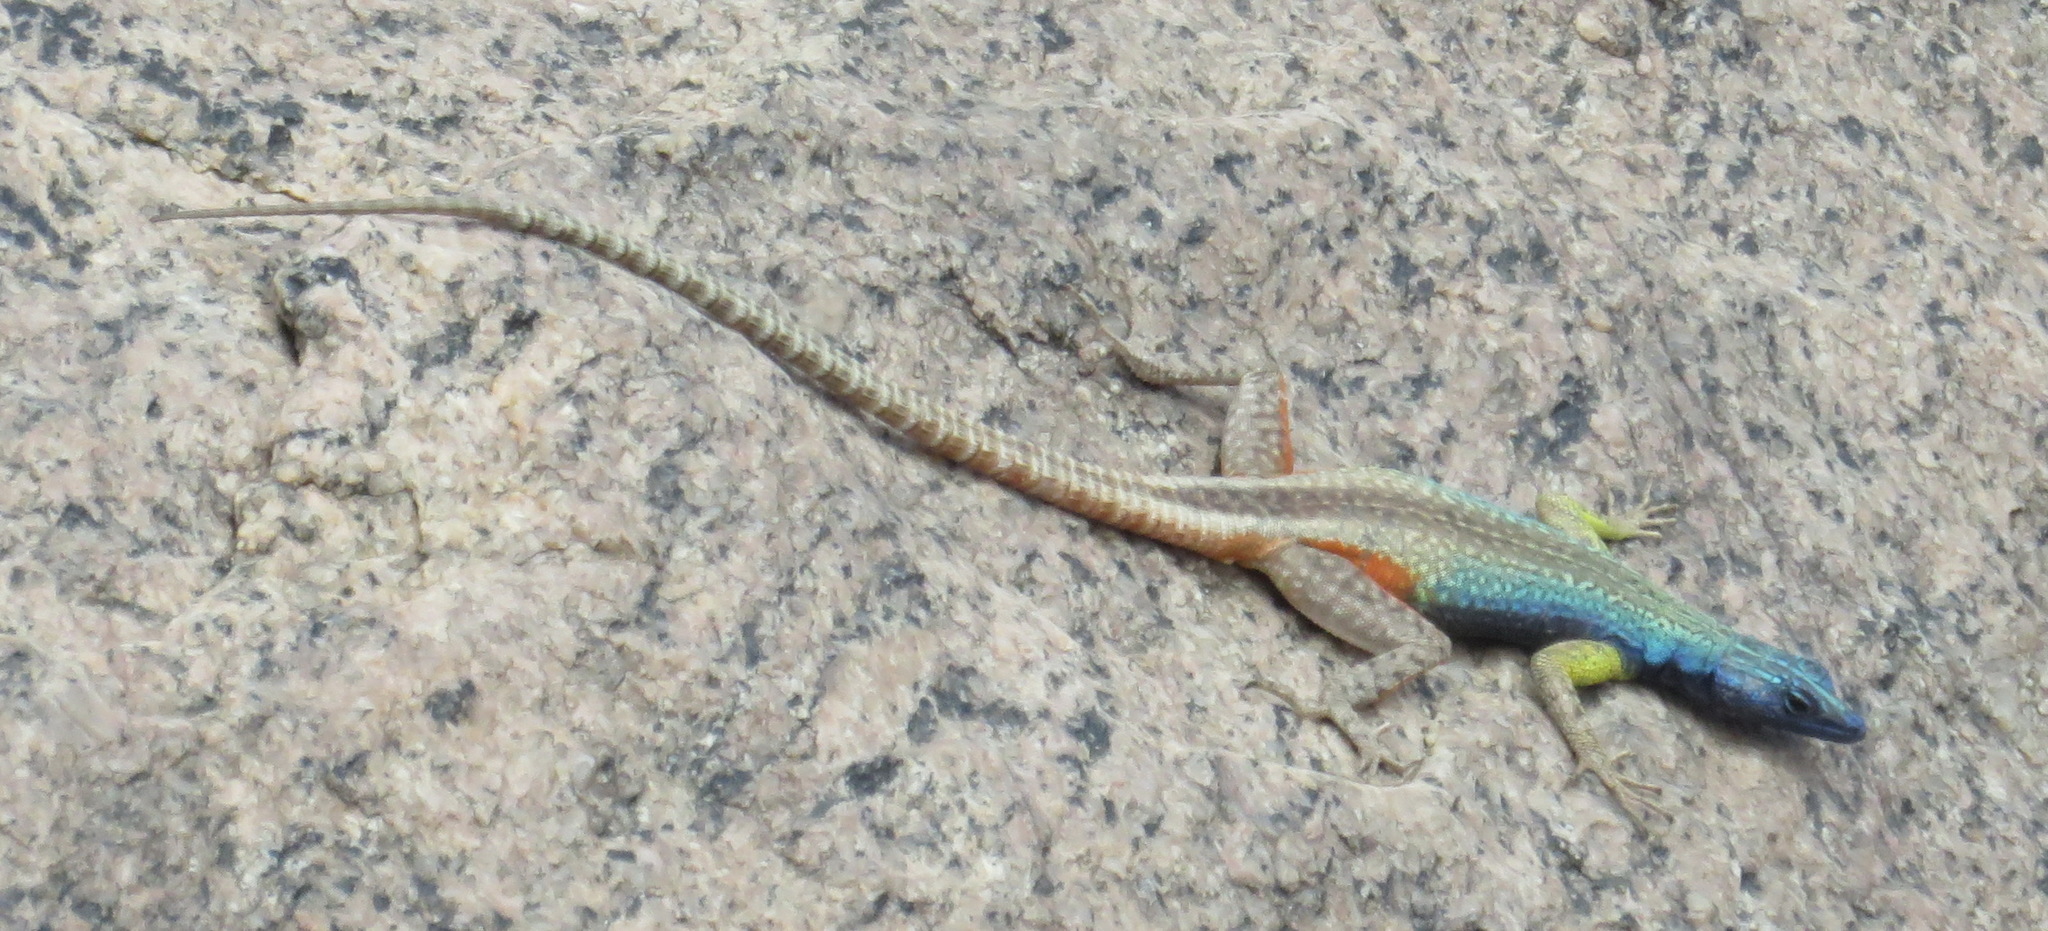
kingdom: Animalia
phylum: Chordata
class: Squamata
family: Cordylidae
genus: Platysaurus
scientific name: Platysaurus broadleyi
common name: Augrabies flat lizard
